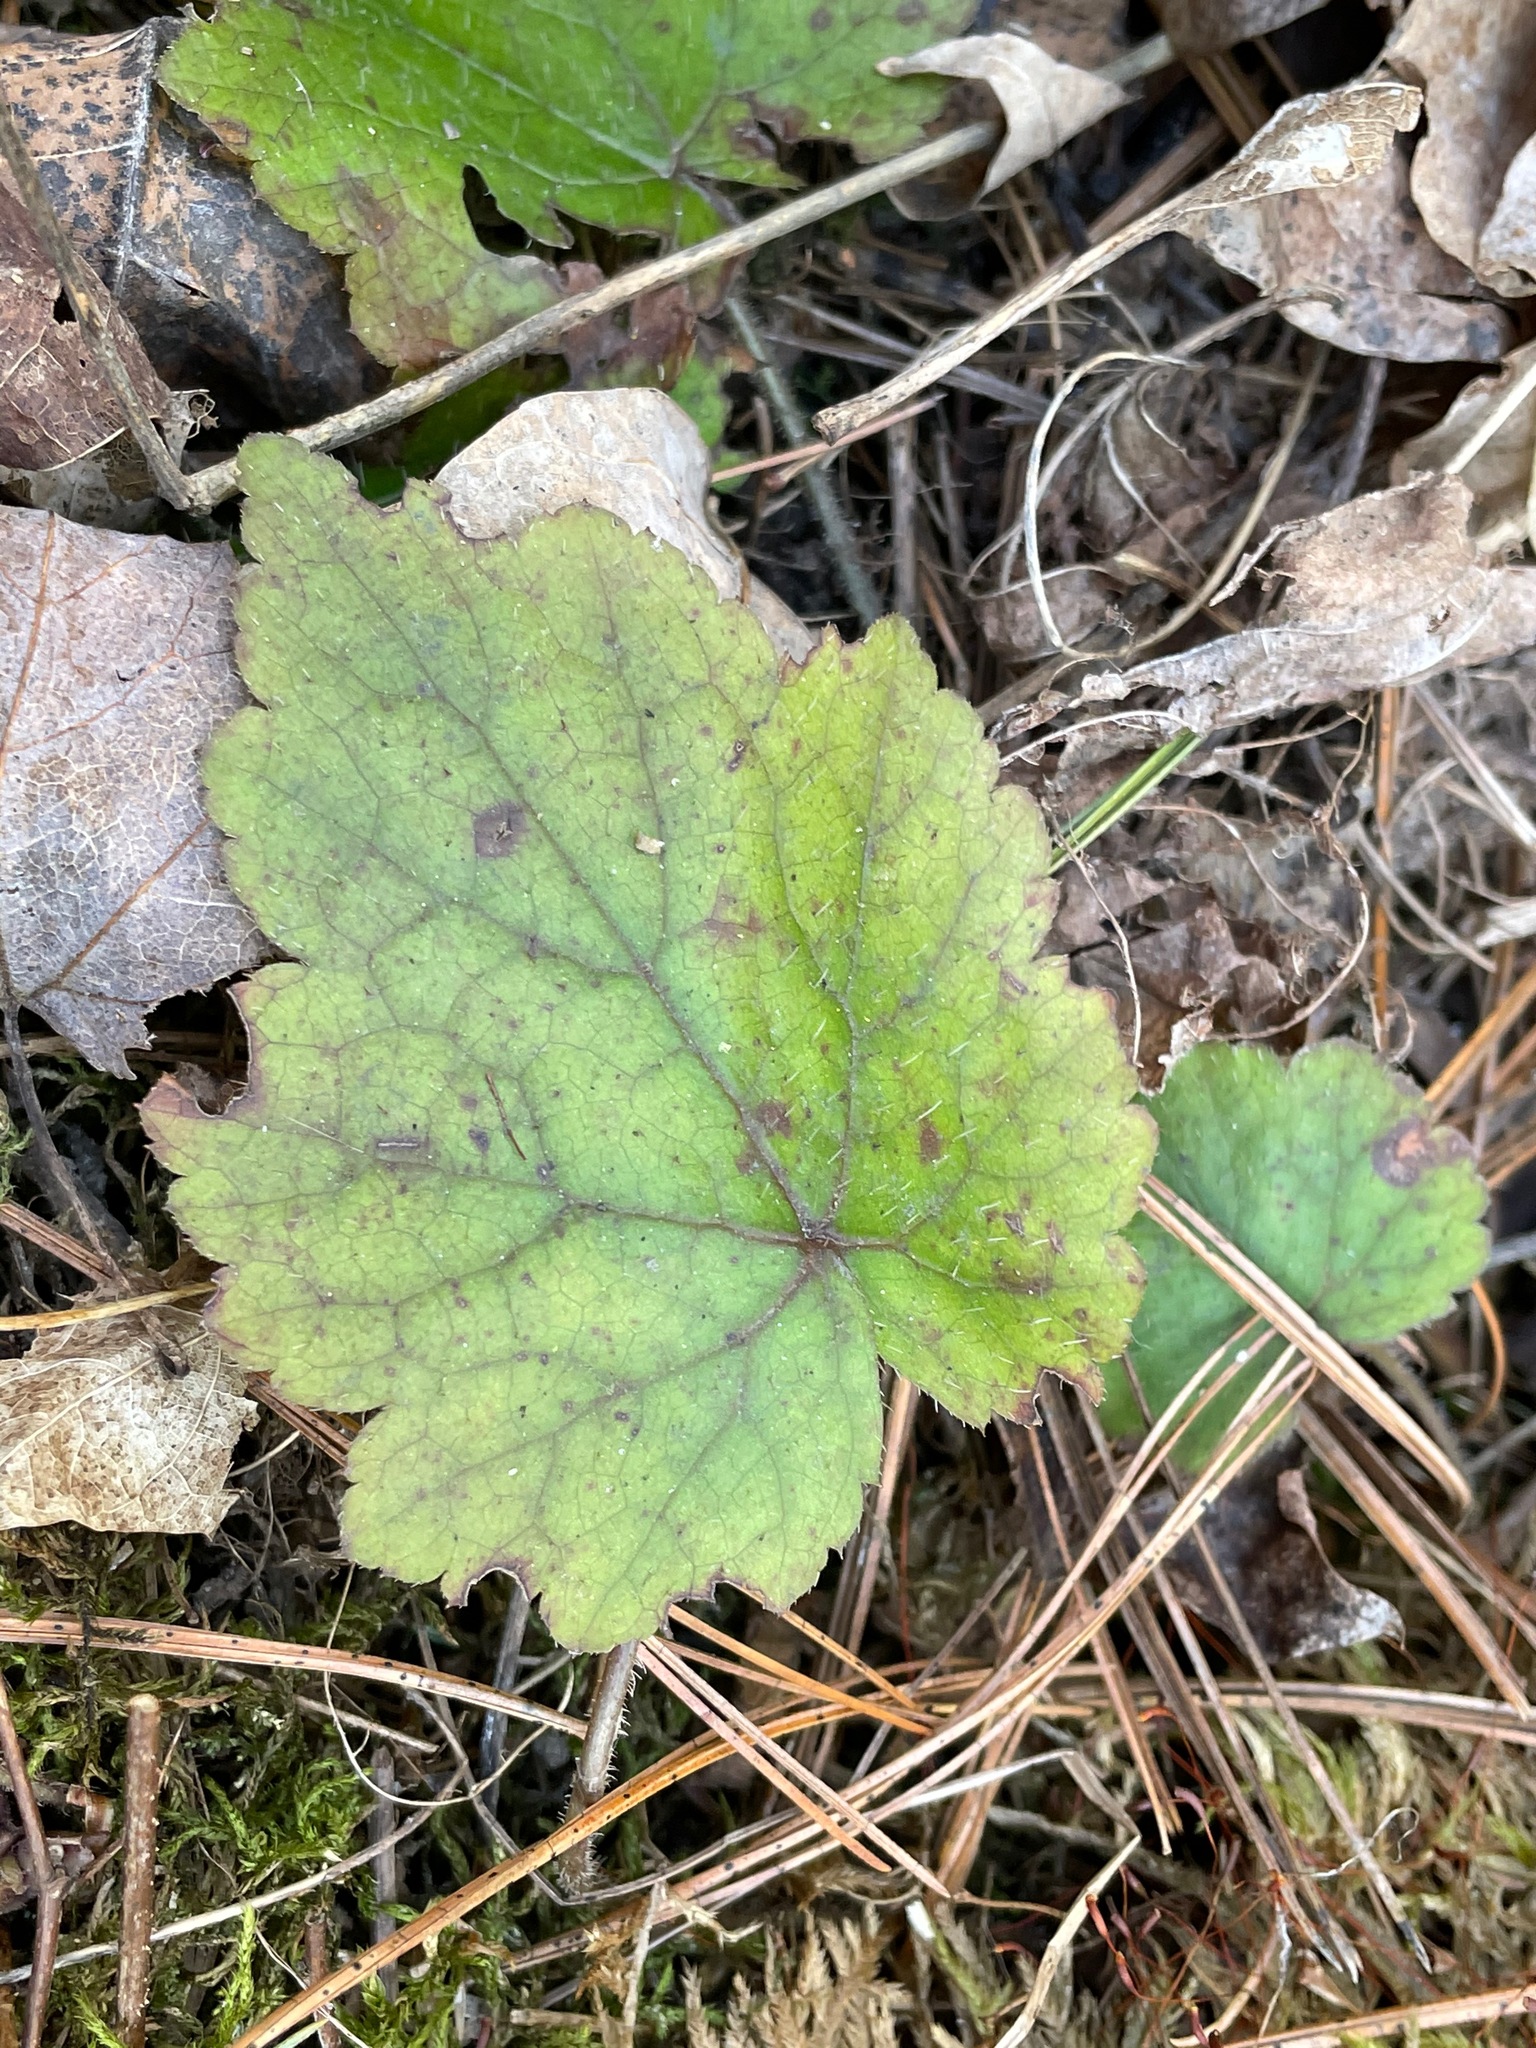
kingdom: Plantae
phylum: Tracheophyta
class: Magnoliopsida
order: Saxifragales
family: Saxifragaceae
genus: Tiarella
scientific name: Tiarella stolonifera
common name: Stoloniferous foamflower
